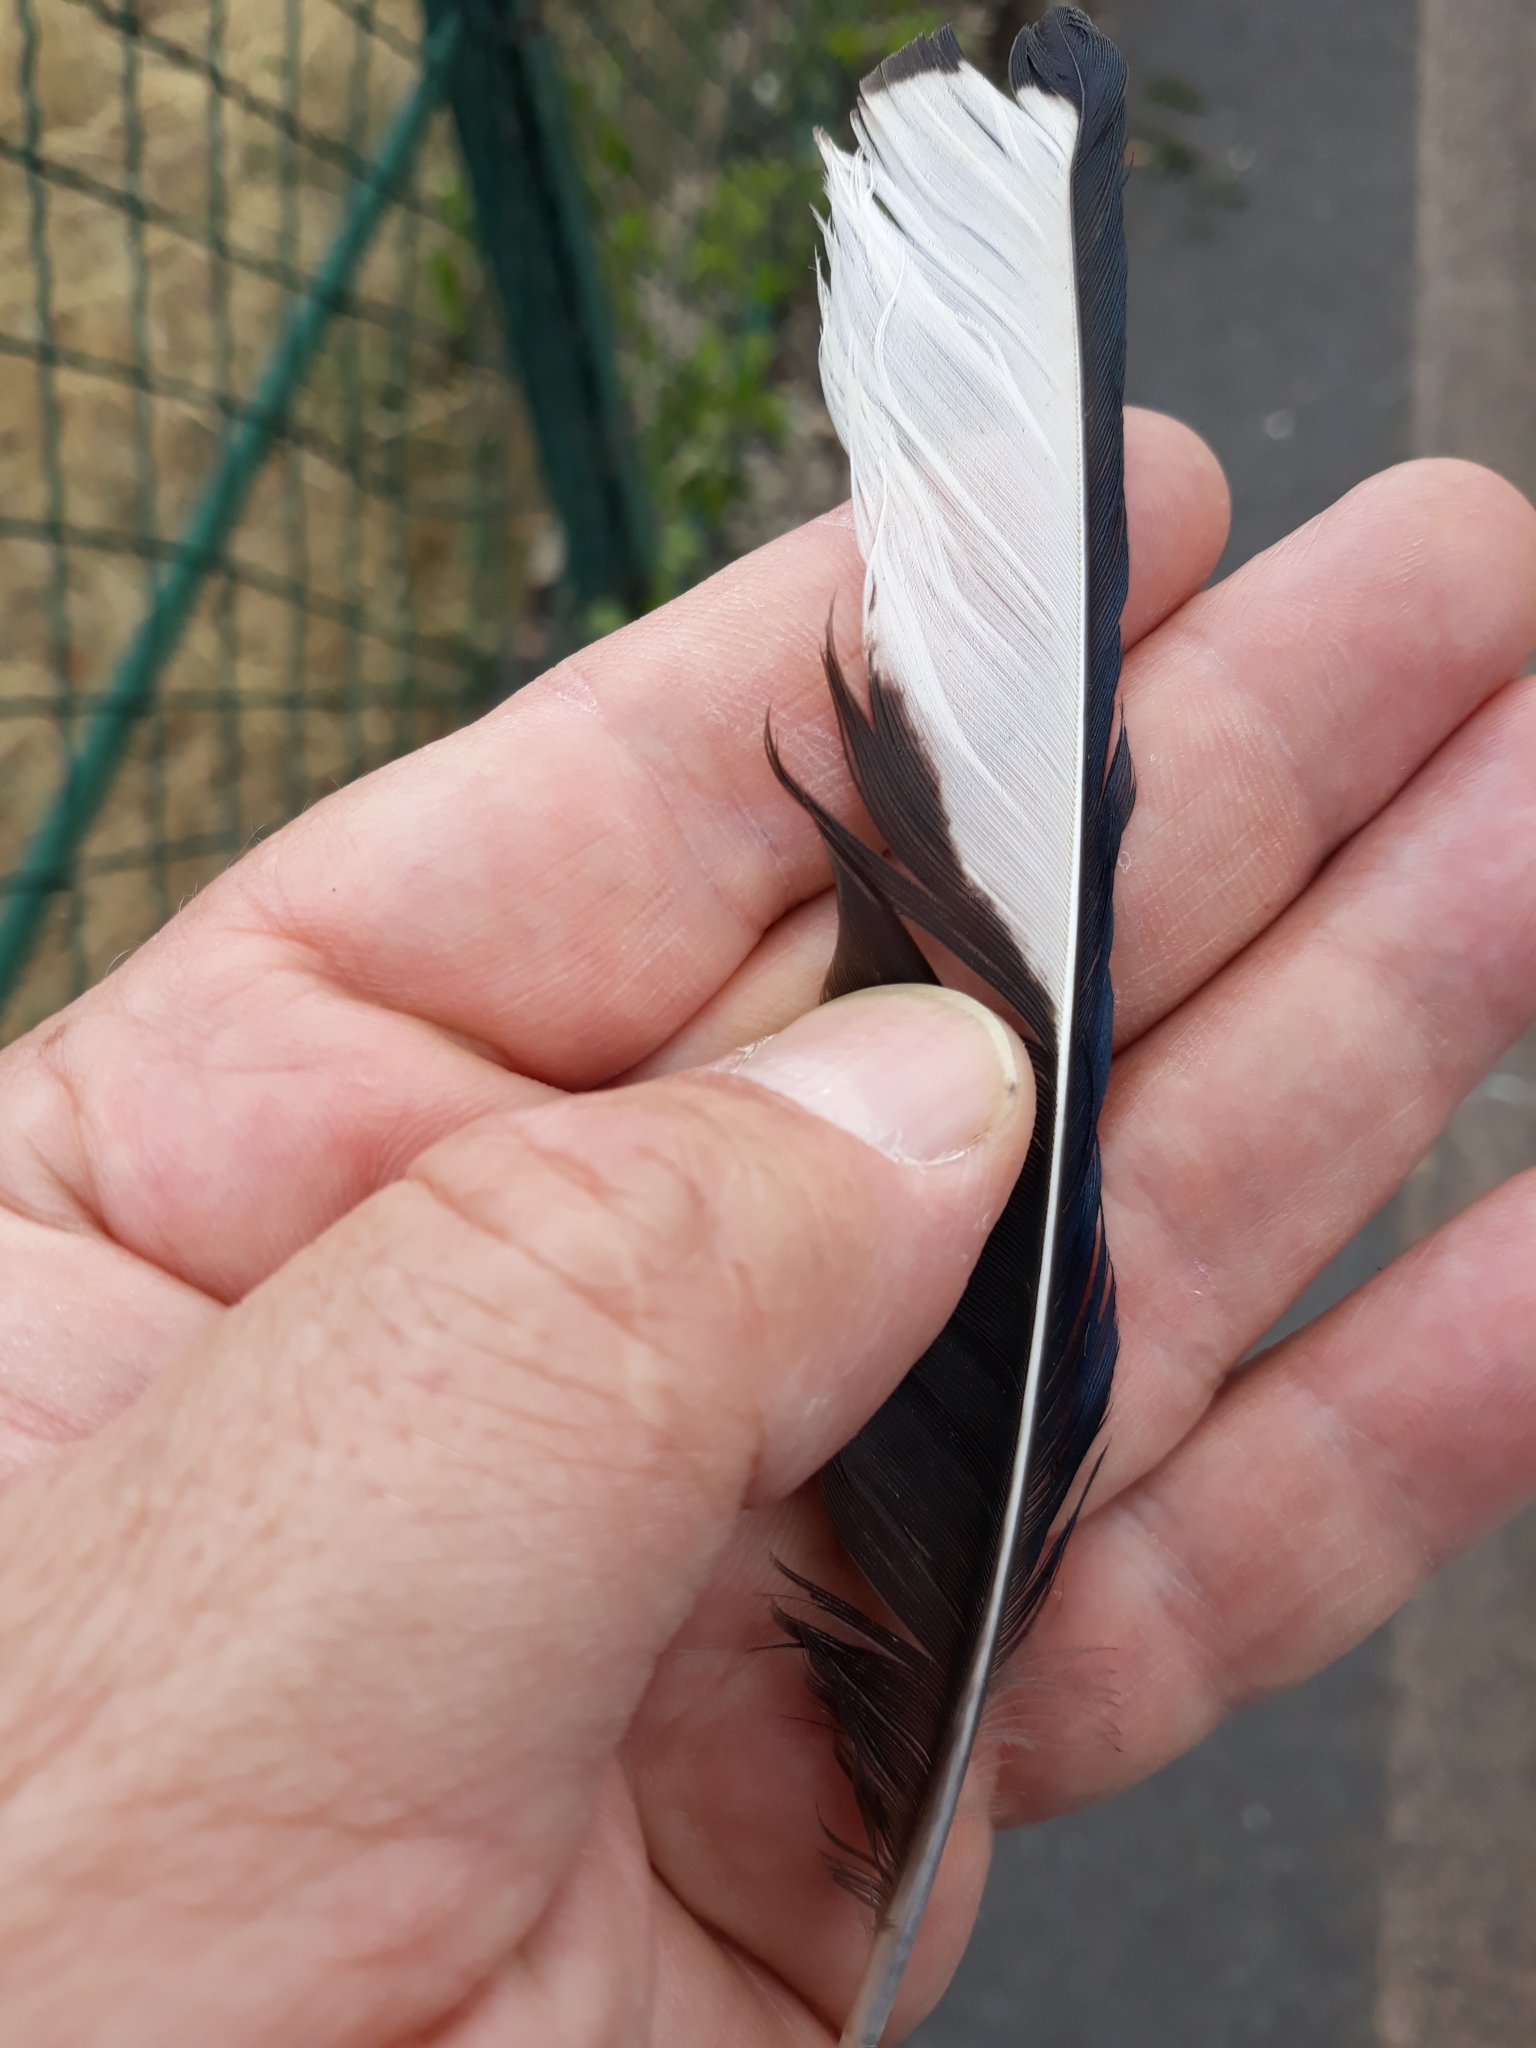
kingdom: Animalia
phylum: Chordata
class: Aves
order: Passeriformes
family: Corvidae
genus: Pica
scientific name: Pica pica
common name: Eurasian magpie
